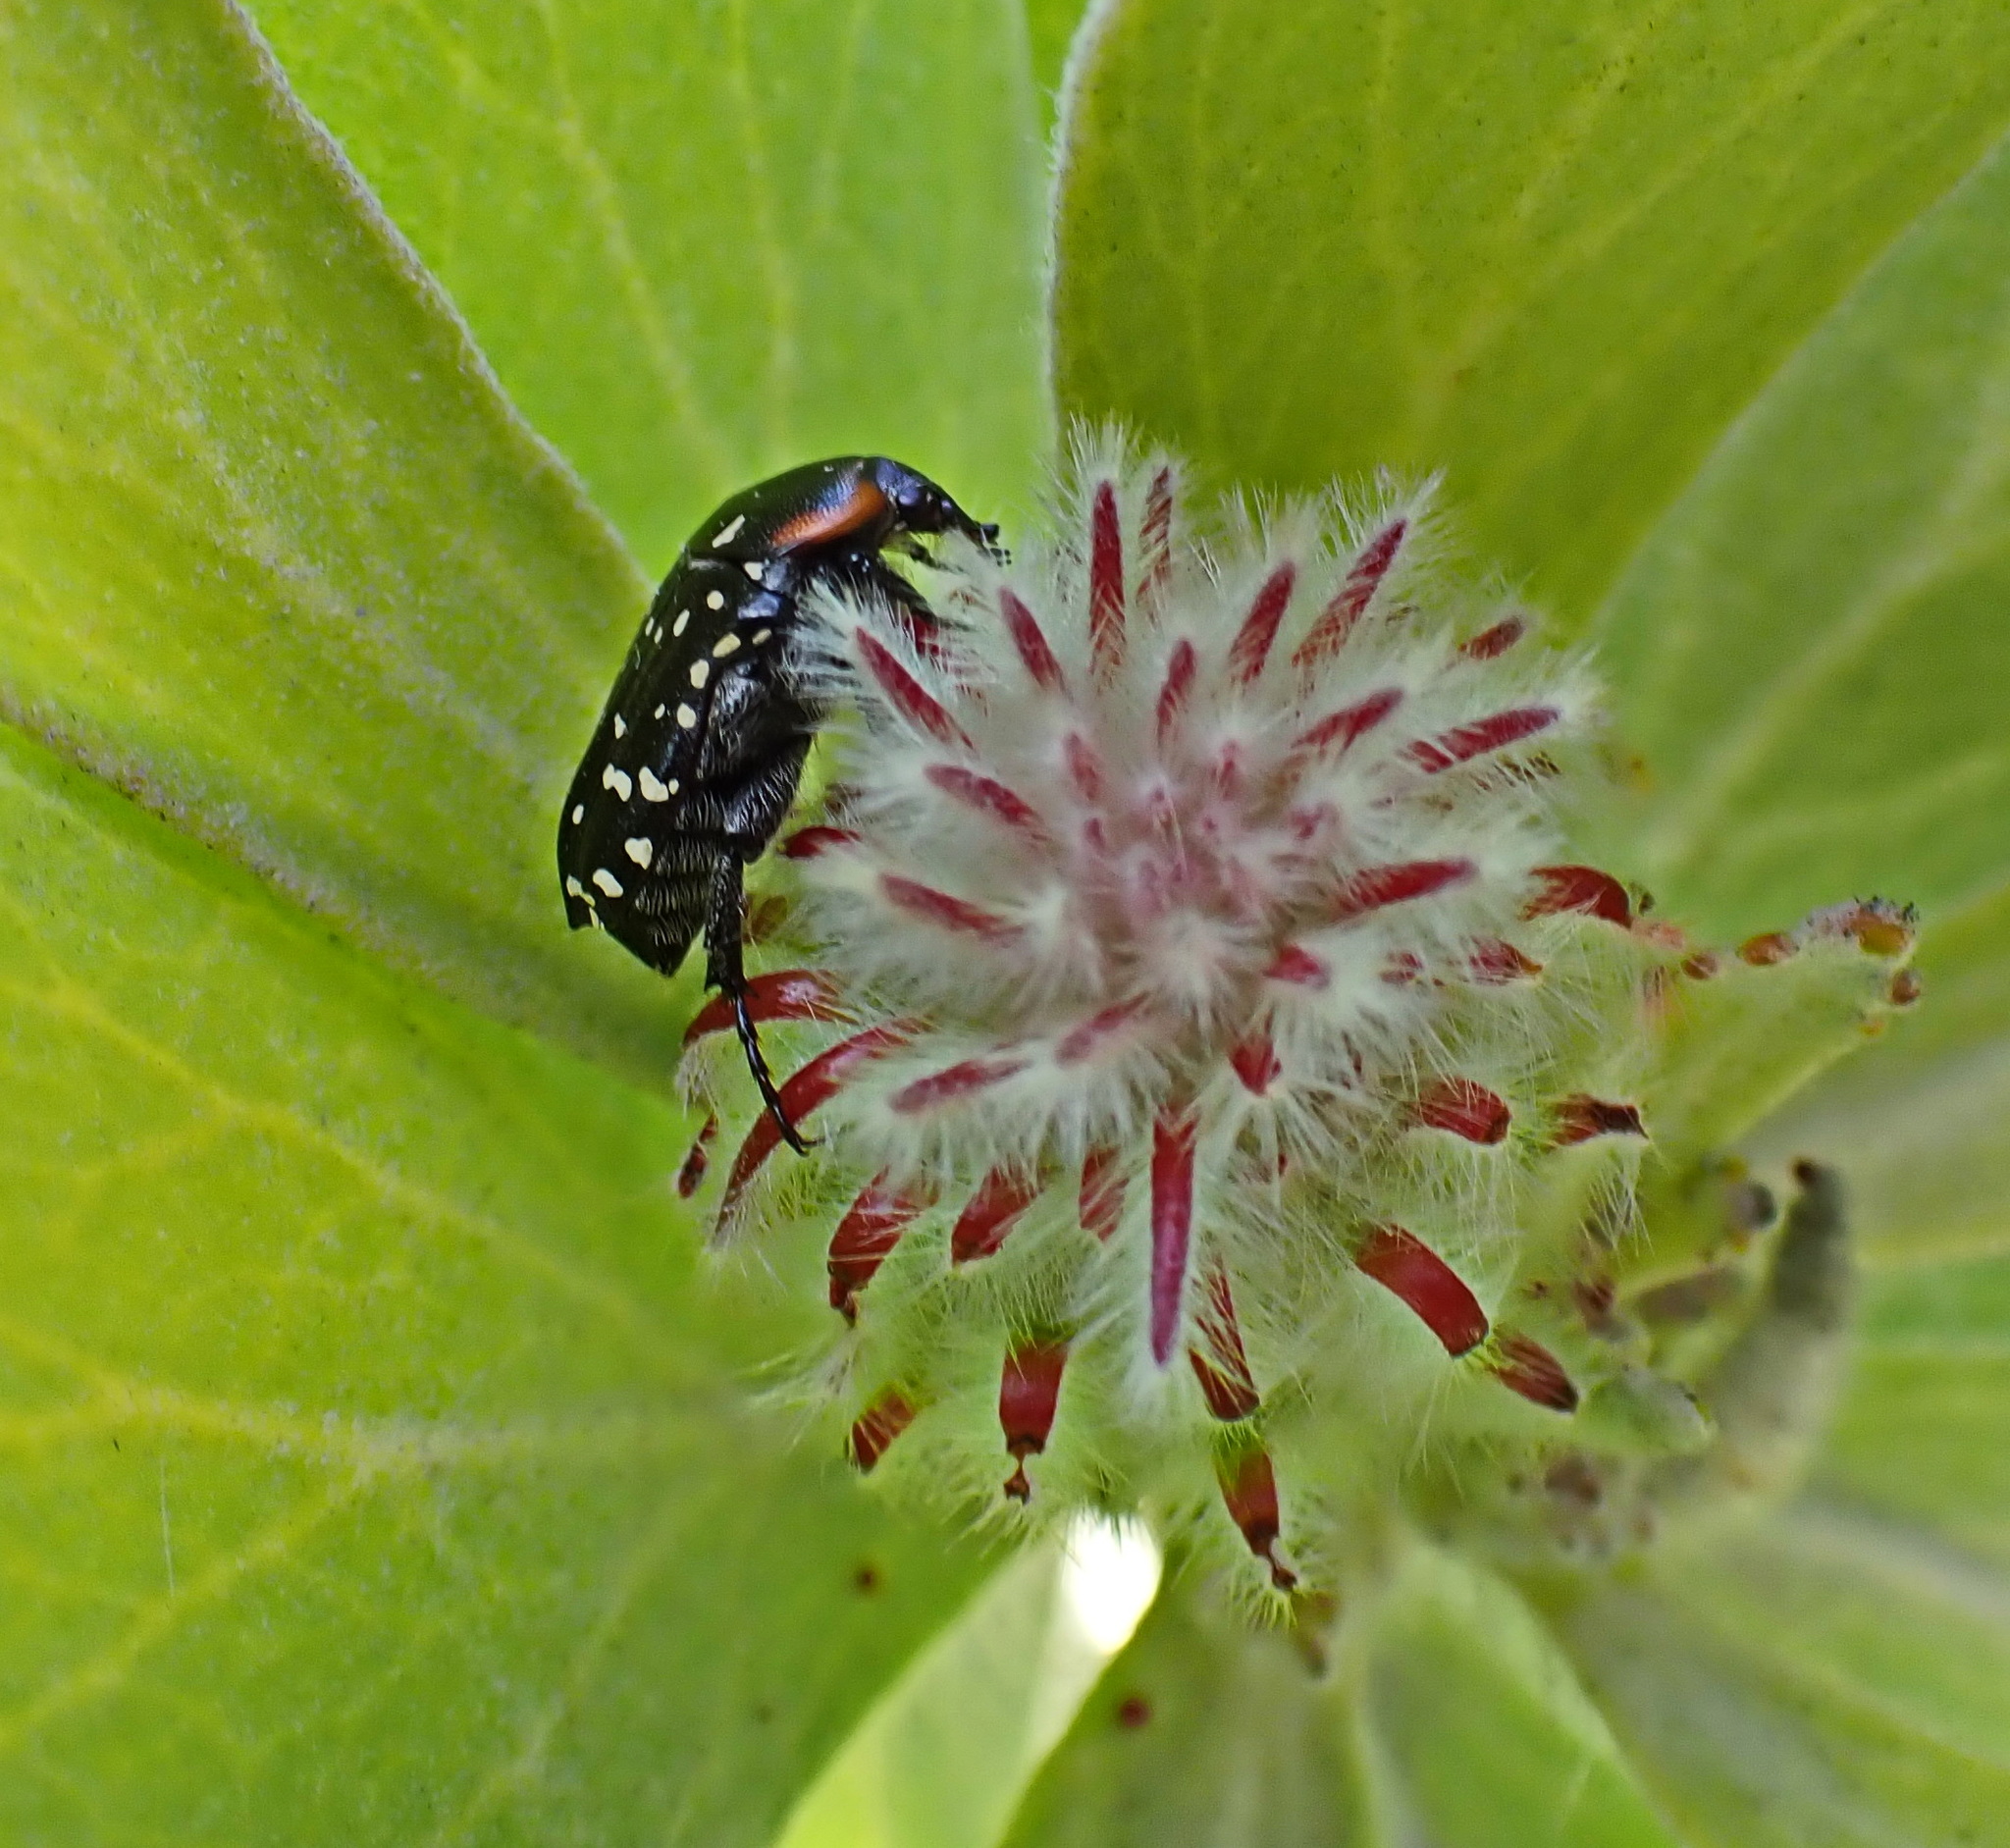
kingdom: Animalia
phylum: Arthropoda
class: Insecta
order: Coleoptera
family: Scarabaeidae
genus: Oxythyrea
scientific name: Oxythyrea
